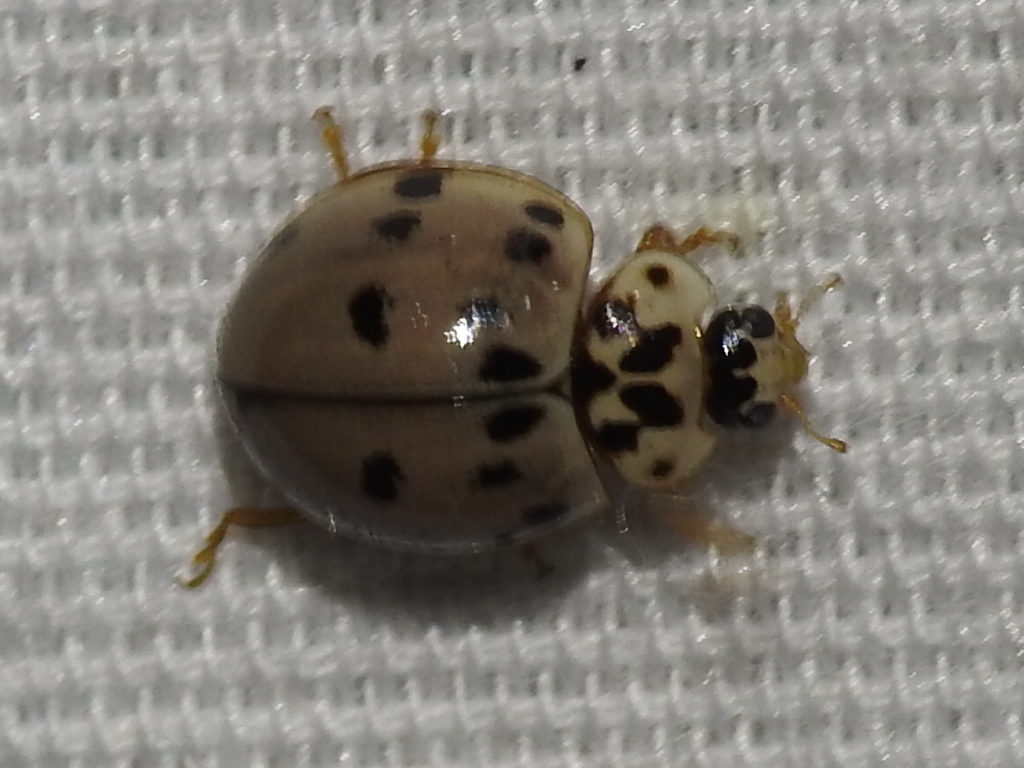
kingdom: Animalia
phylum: Arthropoda
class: Insecta
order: Coleoptera
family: Coccinellidae
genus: Olla
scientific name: Olla v-nigrum
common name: Ashy gray lady beetle
